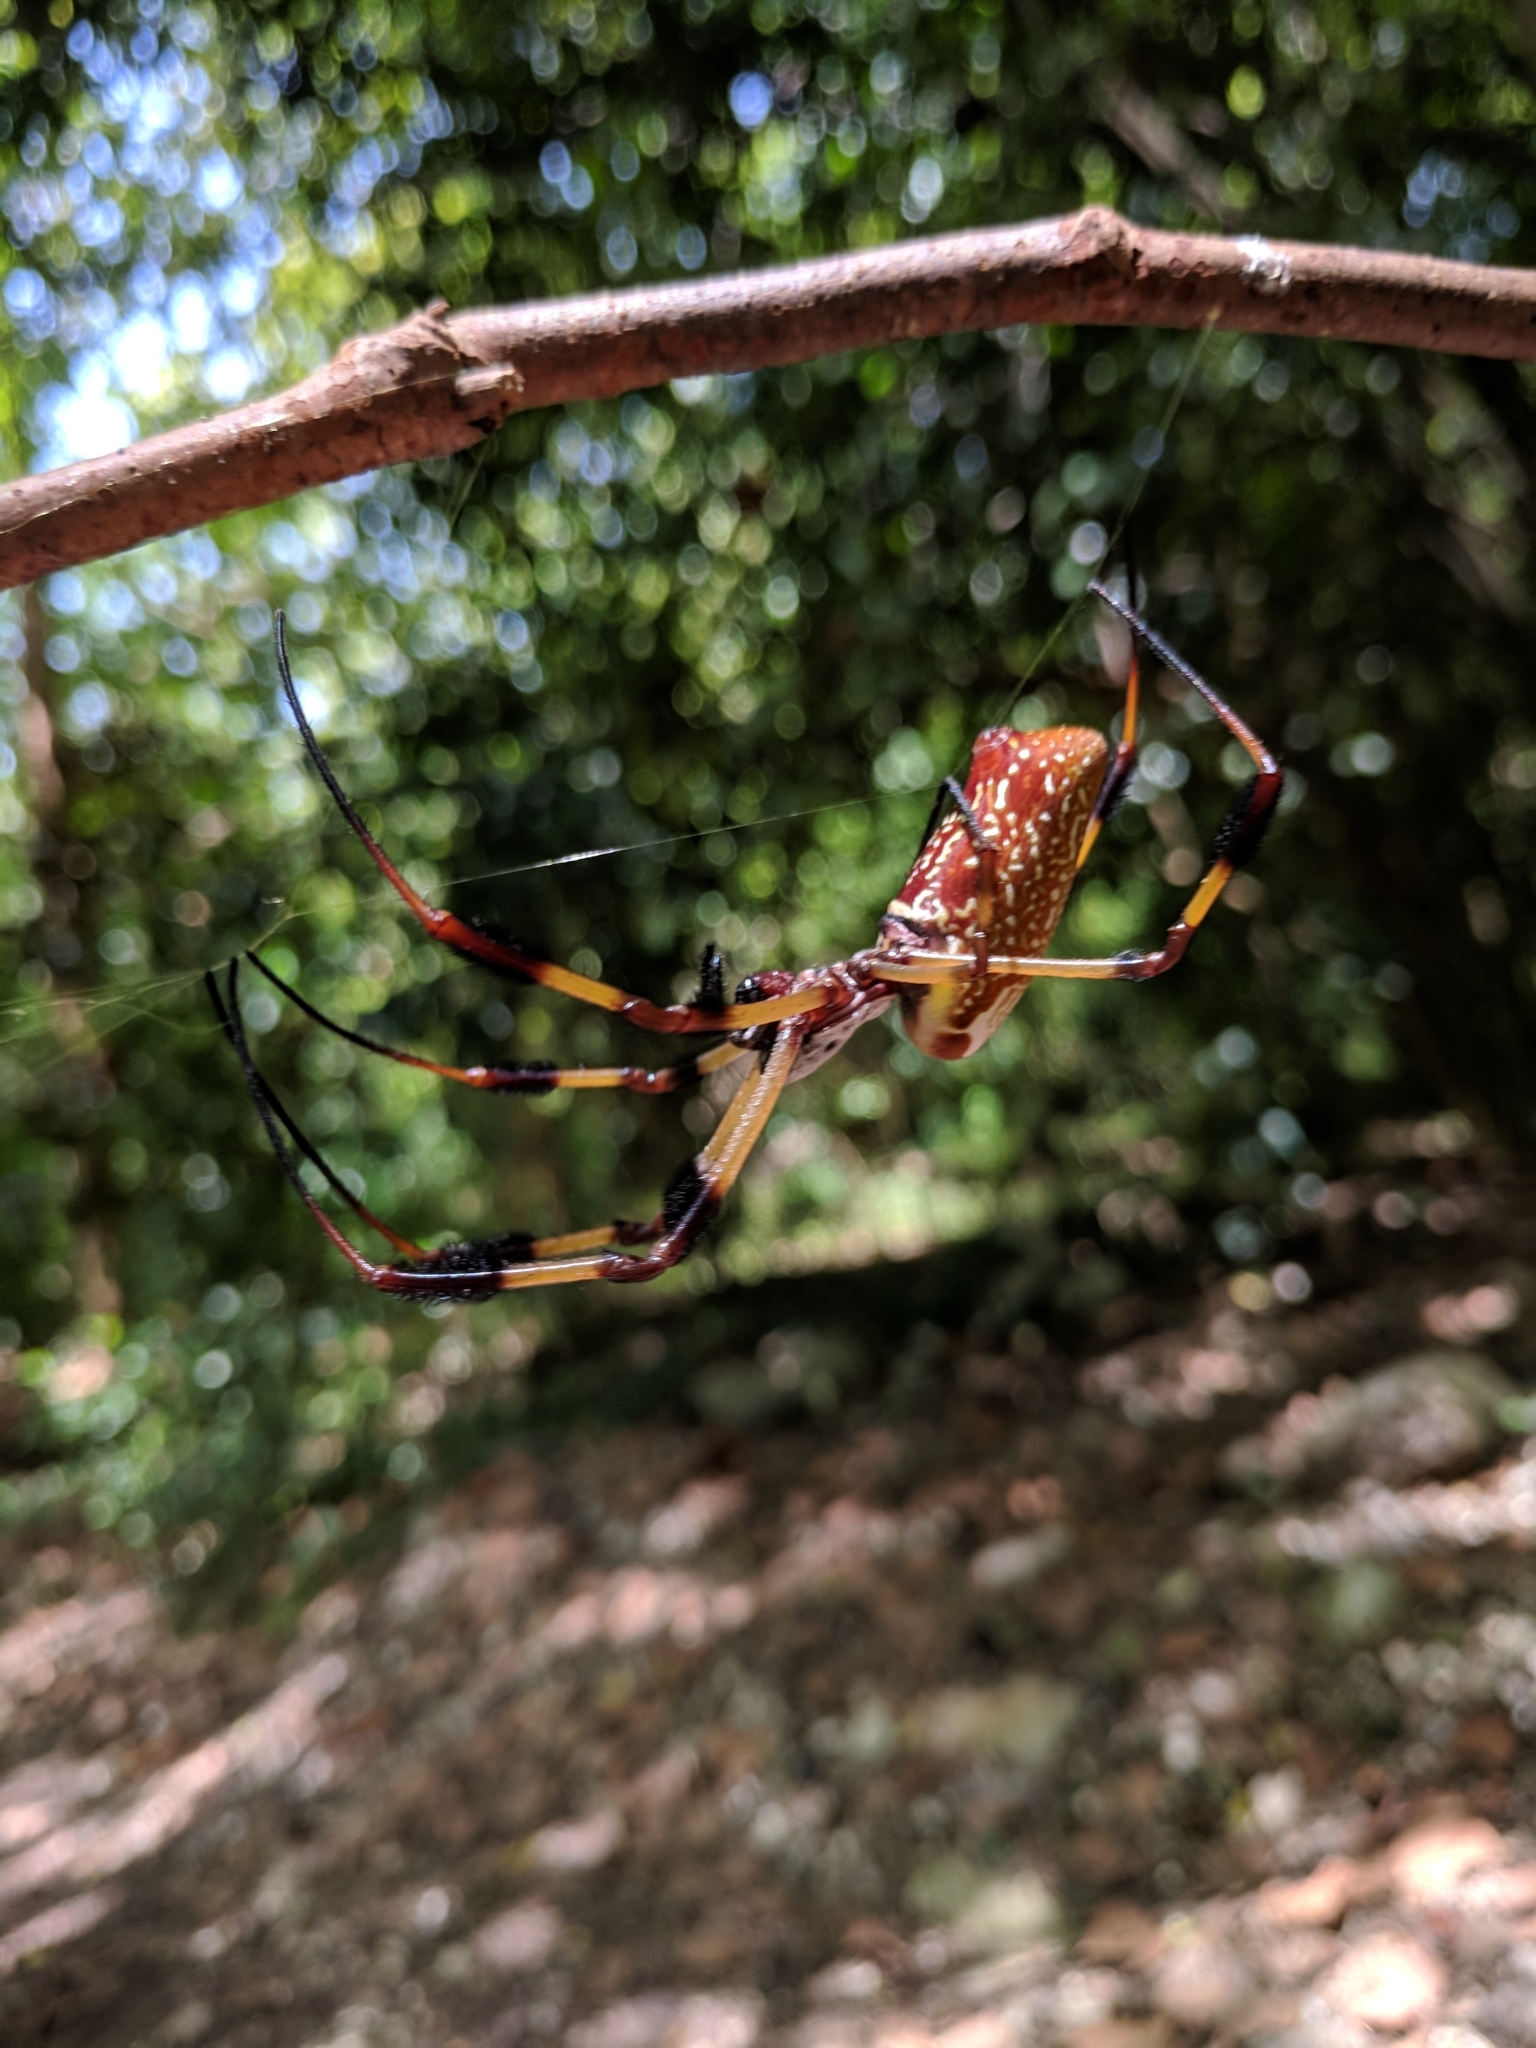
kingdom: Animalia
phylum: Arthropoda
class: Arachnida
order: Araneae
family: Araneidae
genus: Trichonephila
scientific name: Trichonephila clavipes
